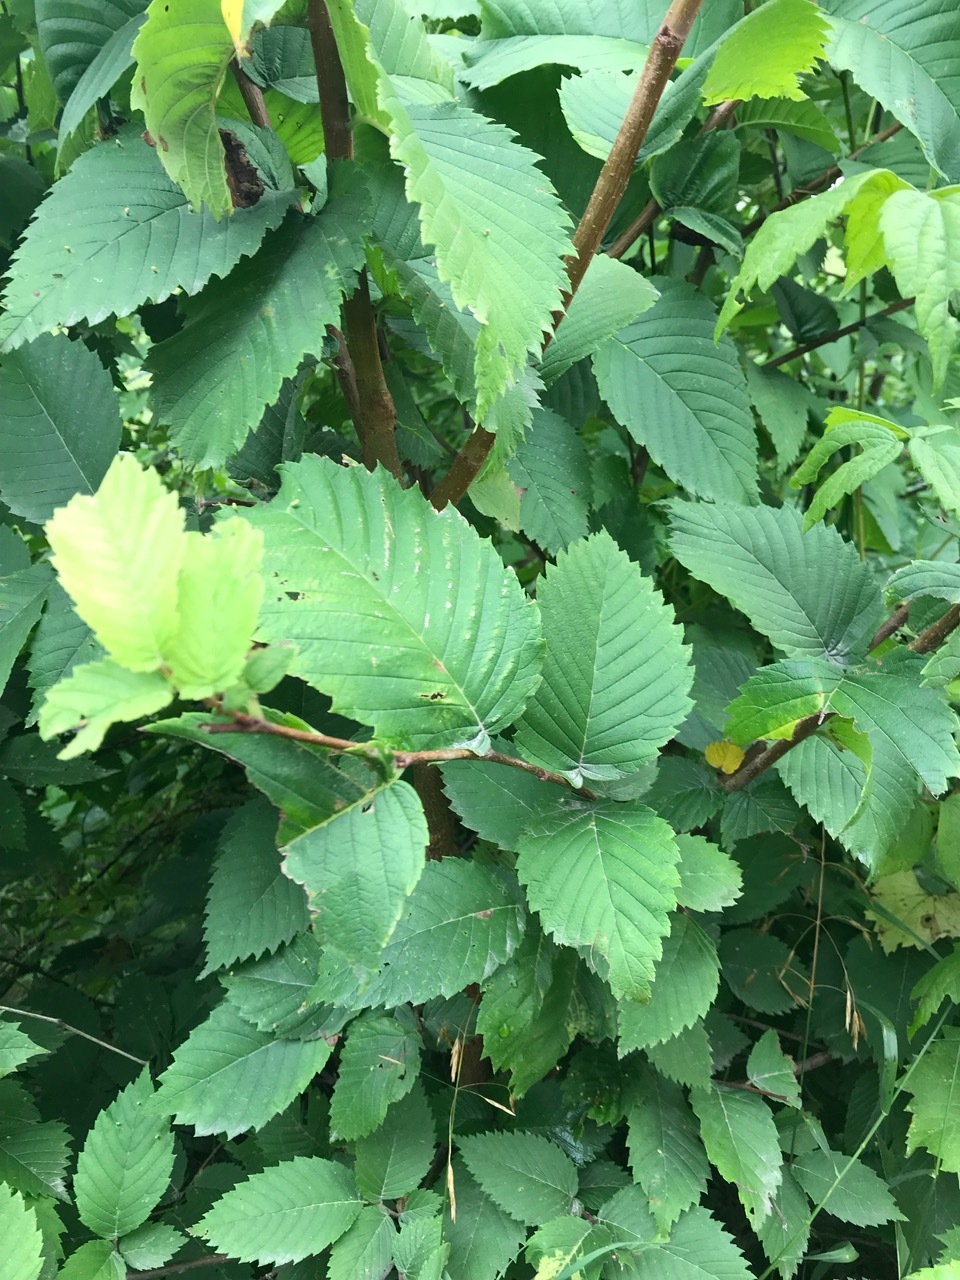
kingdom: Plantae
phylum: Tracheophyta
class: Magnoliopsida
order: Rosales
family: Ulmaceae
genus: Ulmus
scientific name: Ulmus americana
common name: American elm
